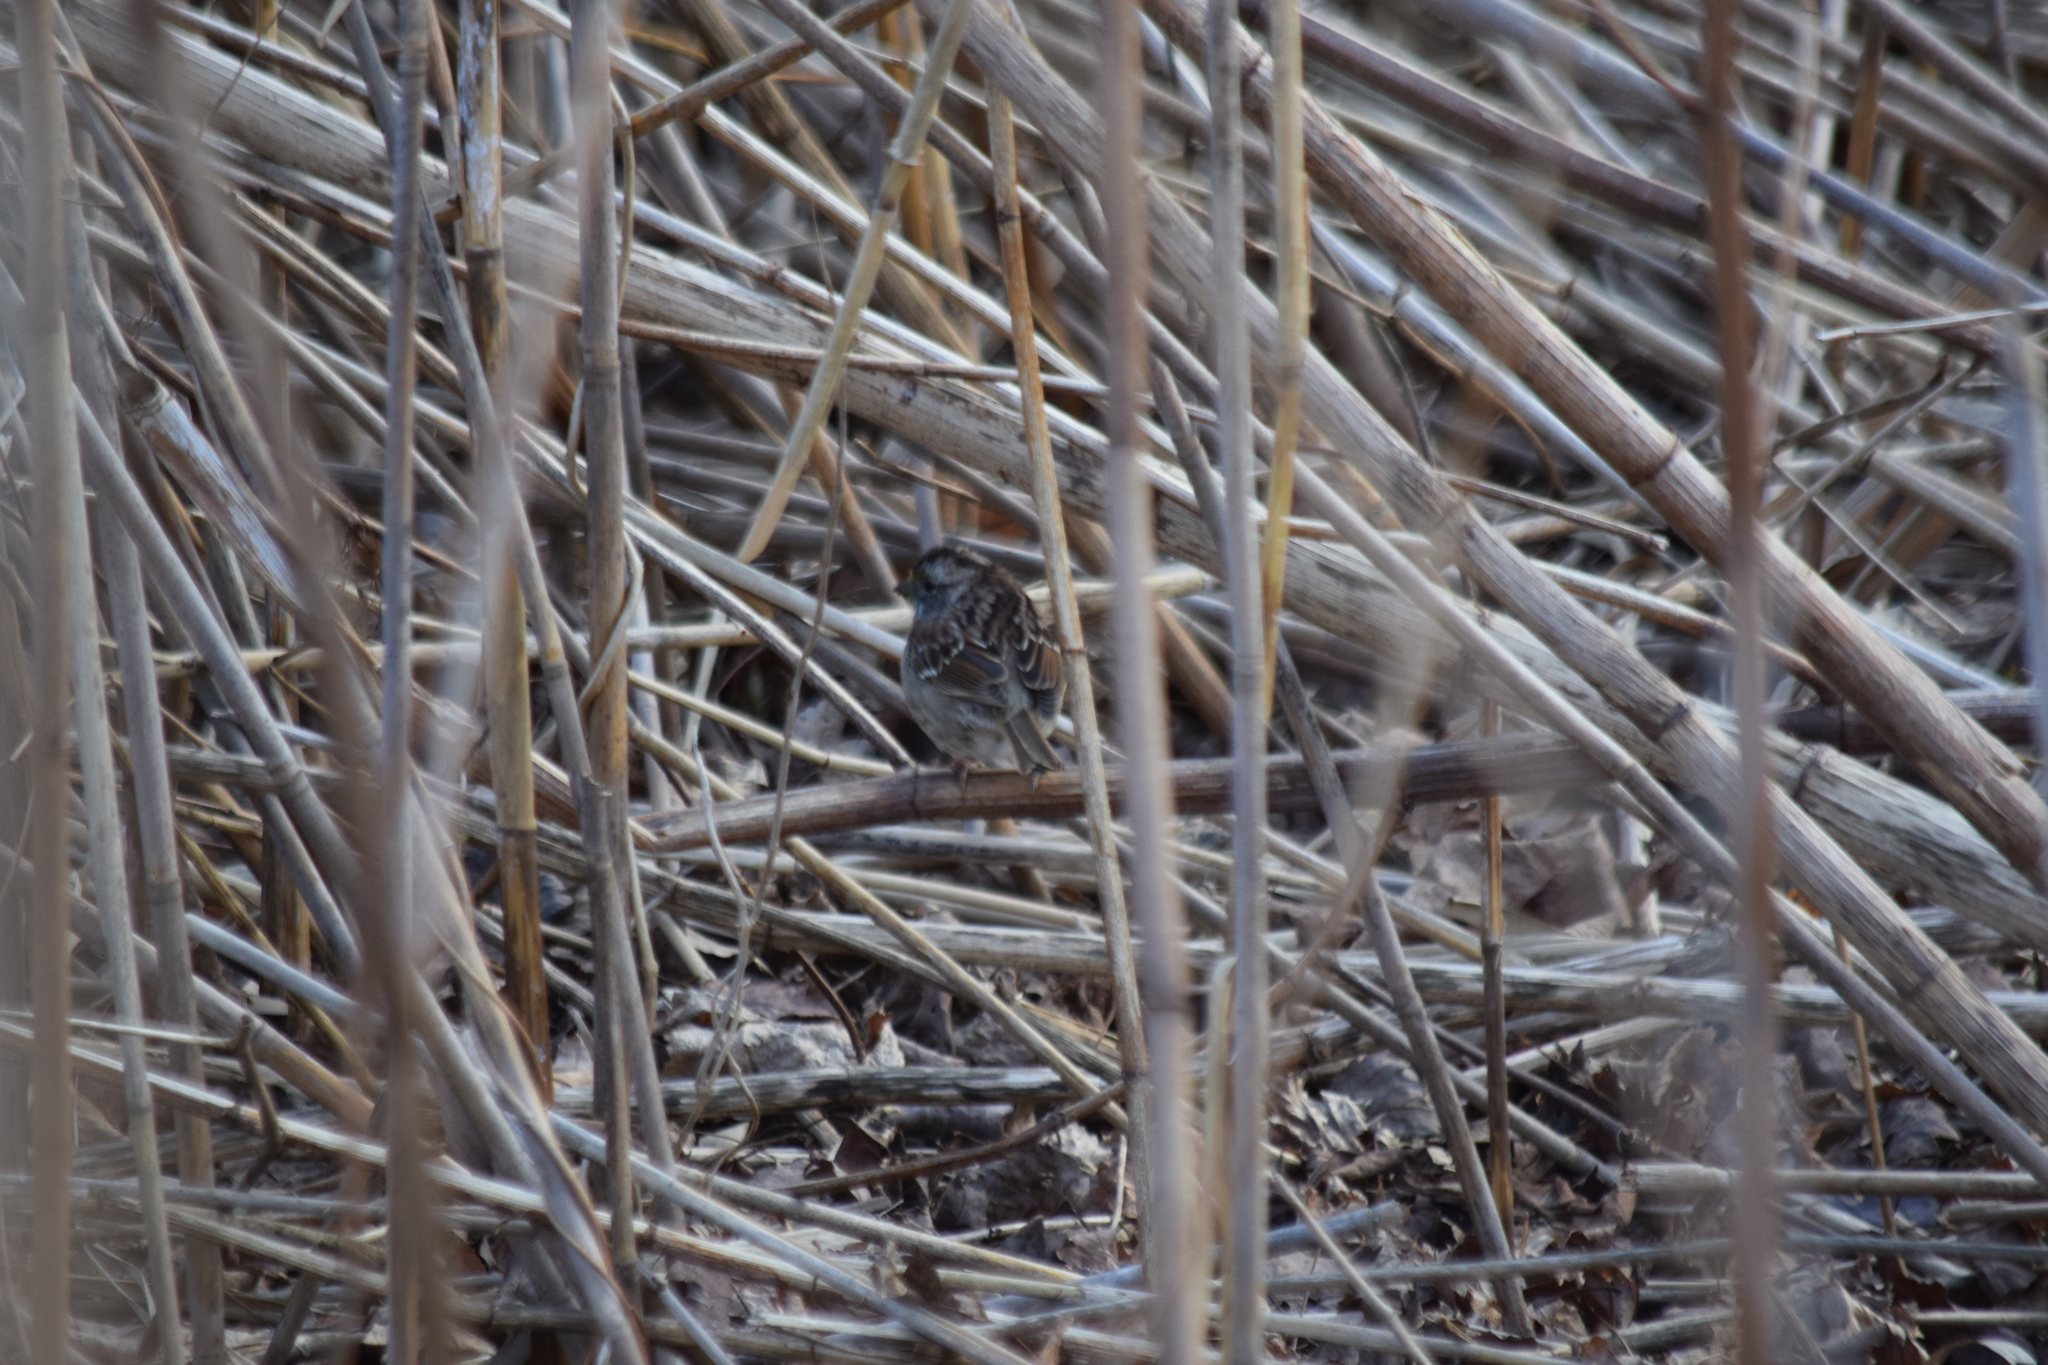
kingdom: Animalia
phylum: Chordata
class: Aves
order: Passeriformes
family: Passerellidae
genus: Zonotrichia
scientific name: Zonotrichia albicollis
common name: White-throated sparrow
